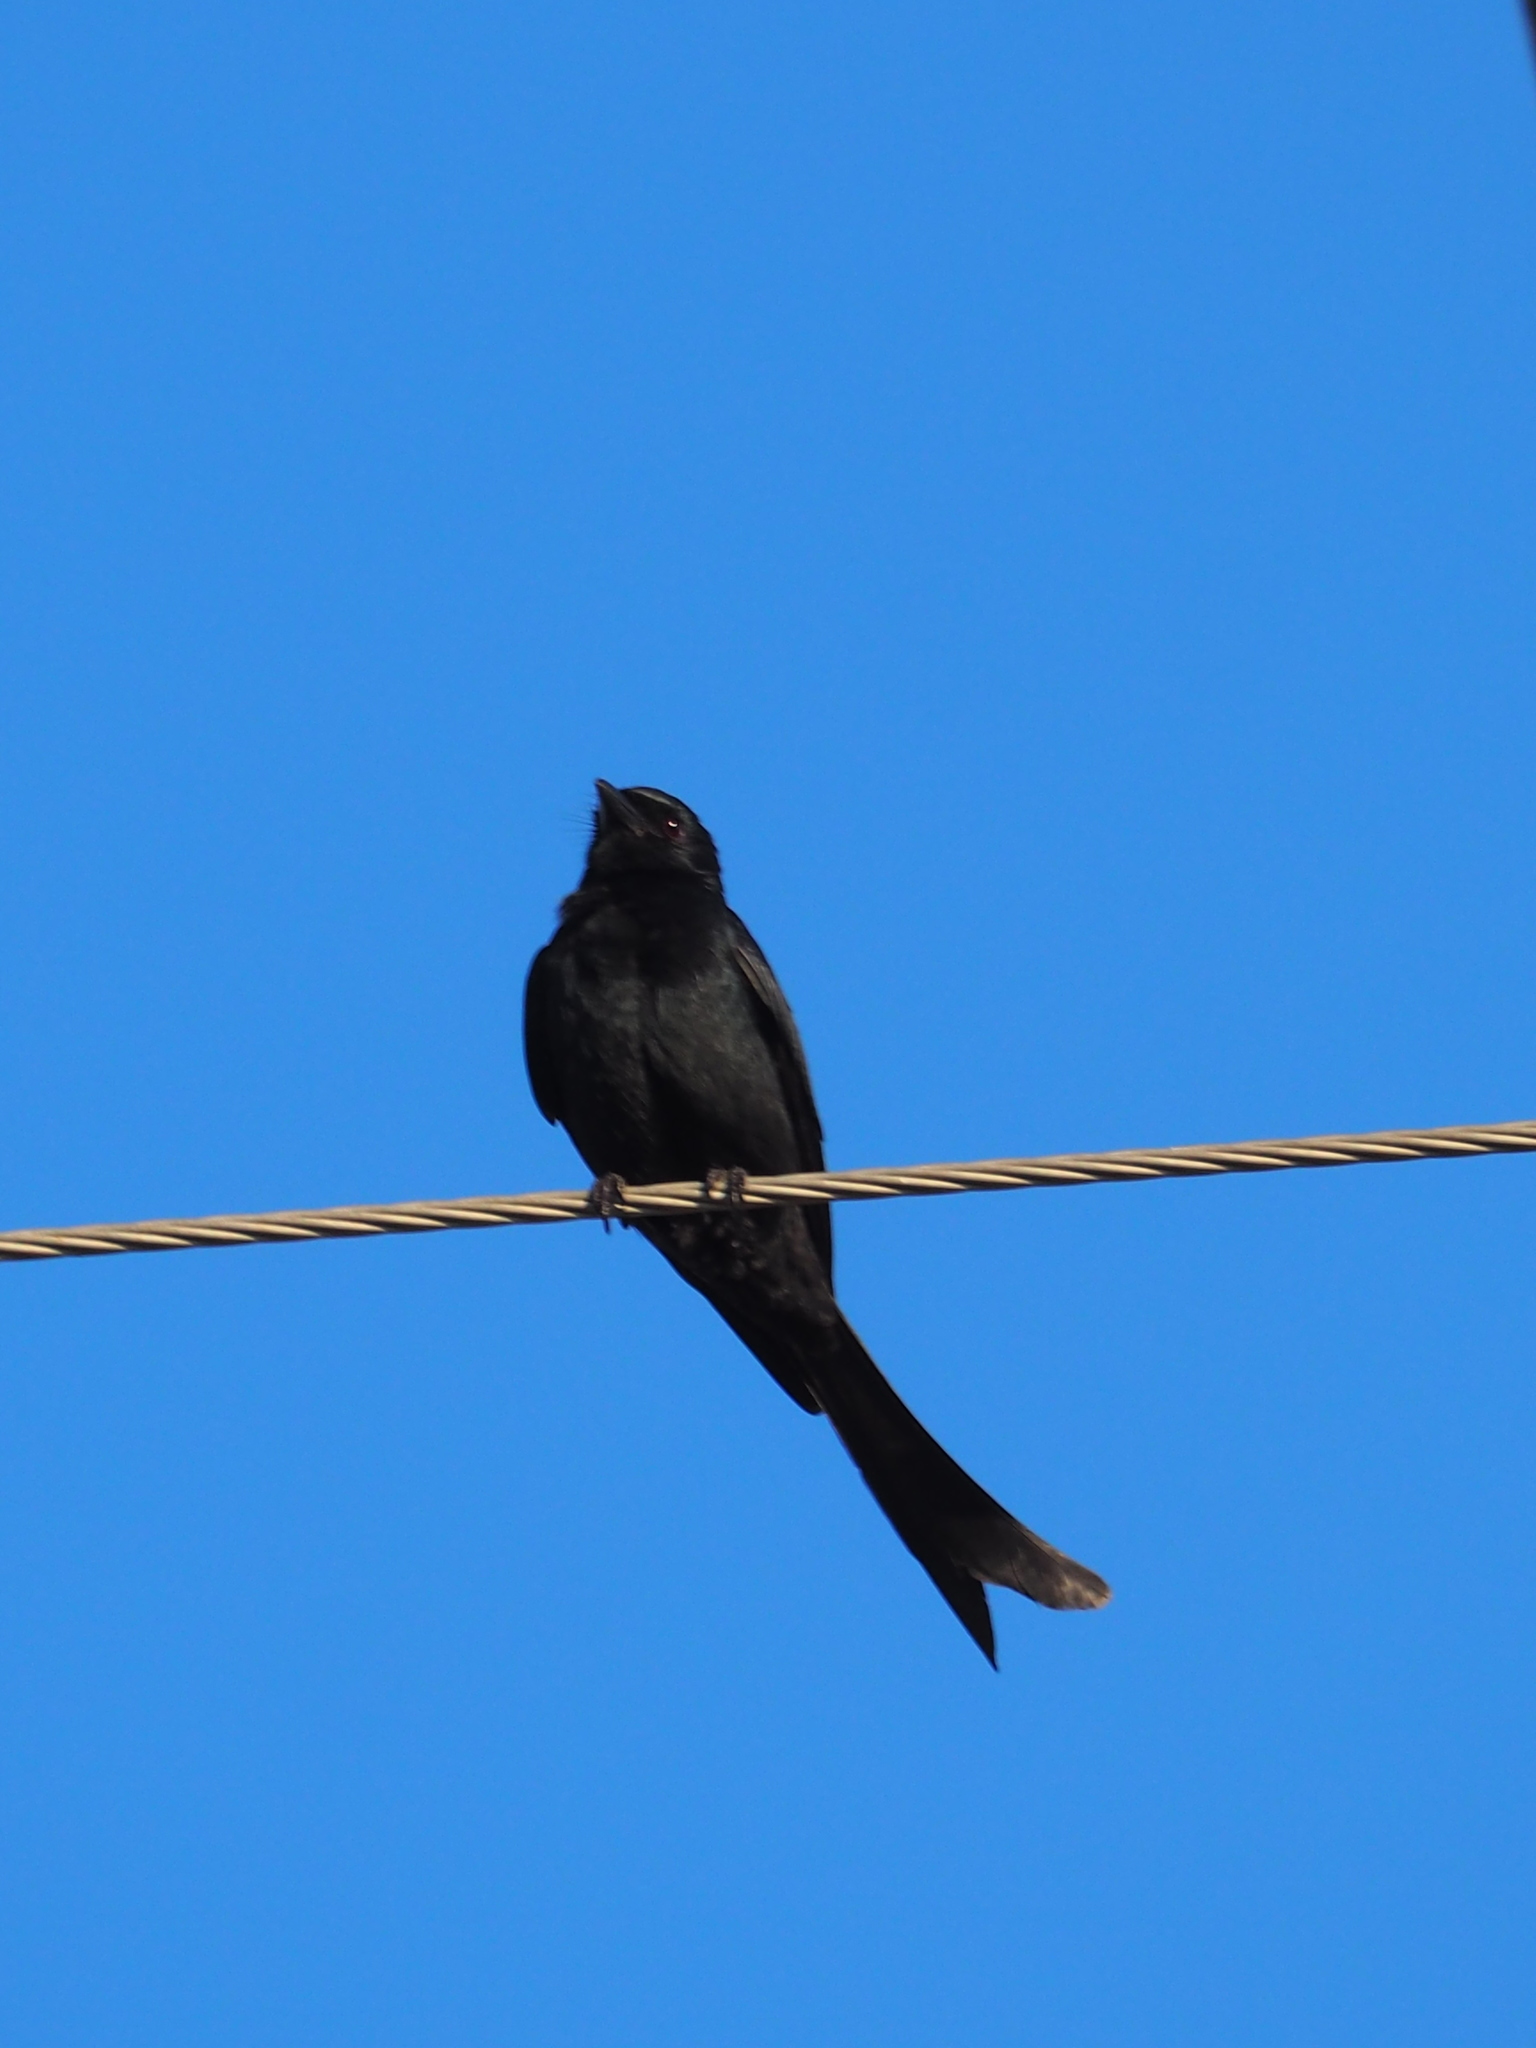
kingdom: Animalia
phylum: Chordata
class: Aves
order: Passeriformes
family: Dicruridae
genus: Dicrurus
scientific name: Dicrurus macrocercus
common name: Black drongo
